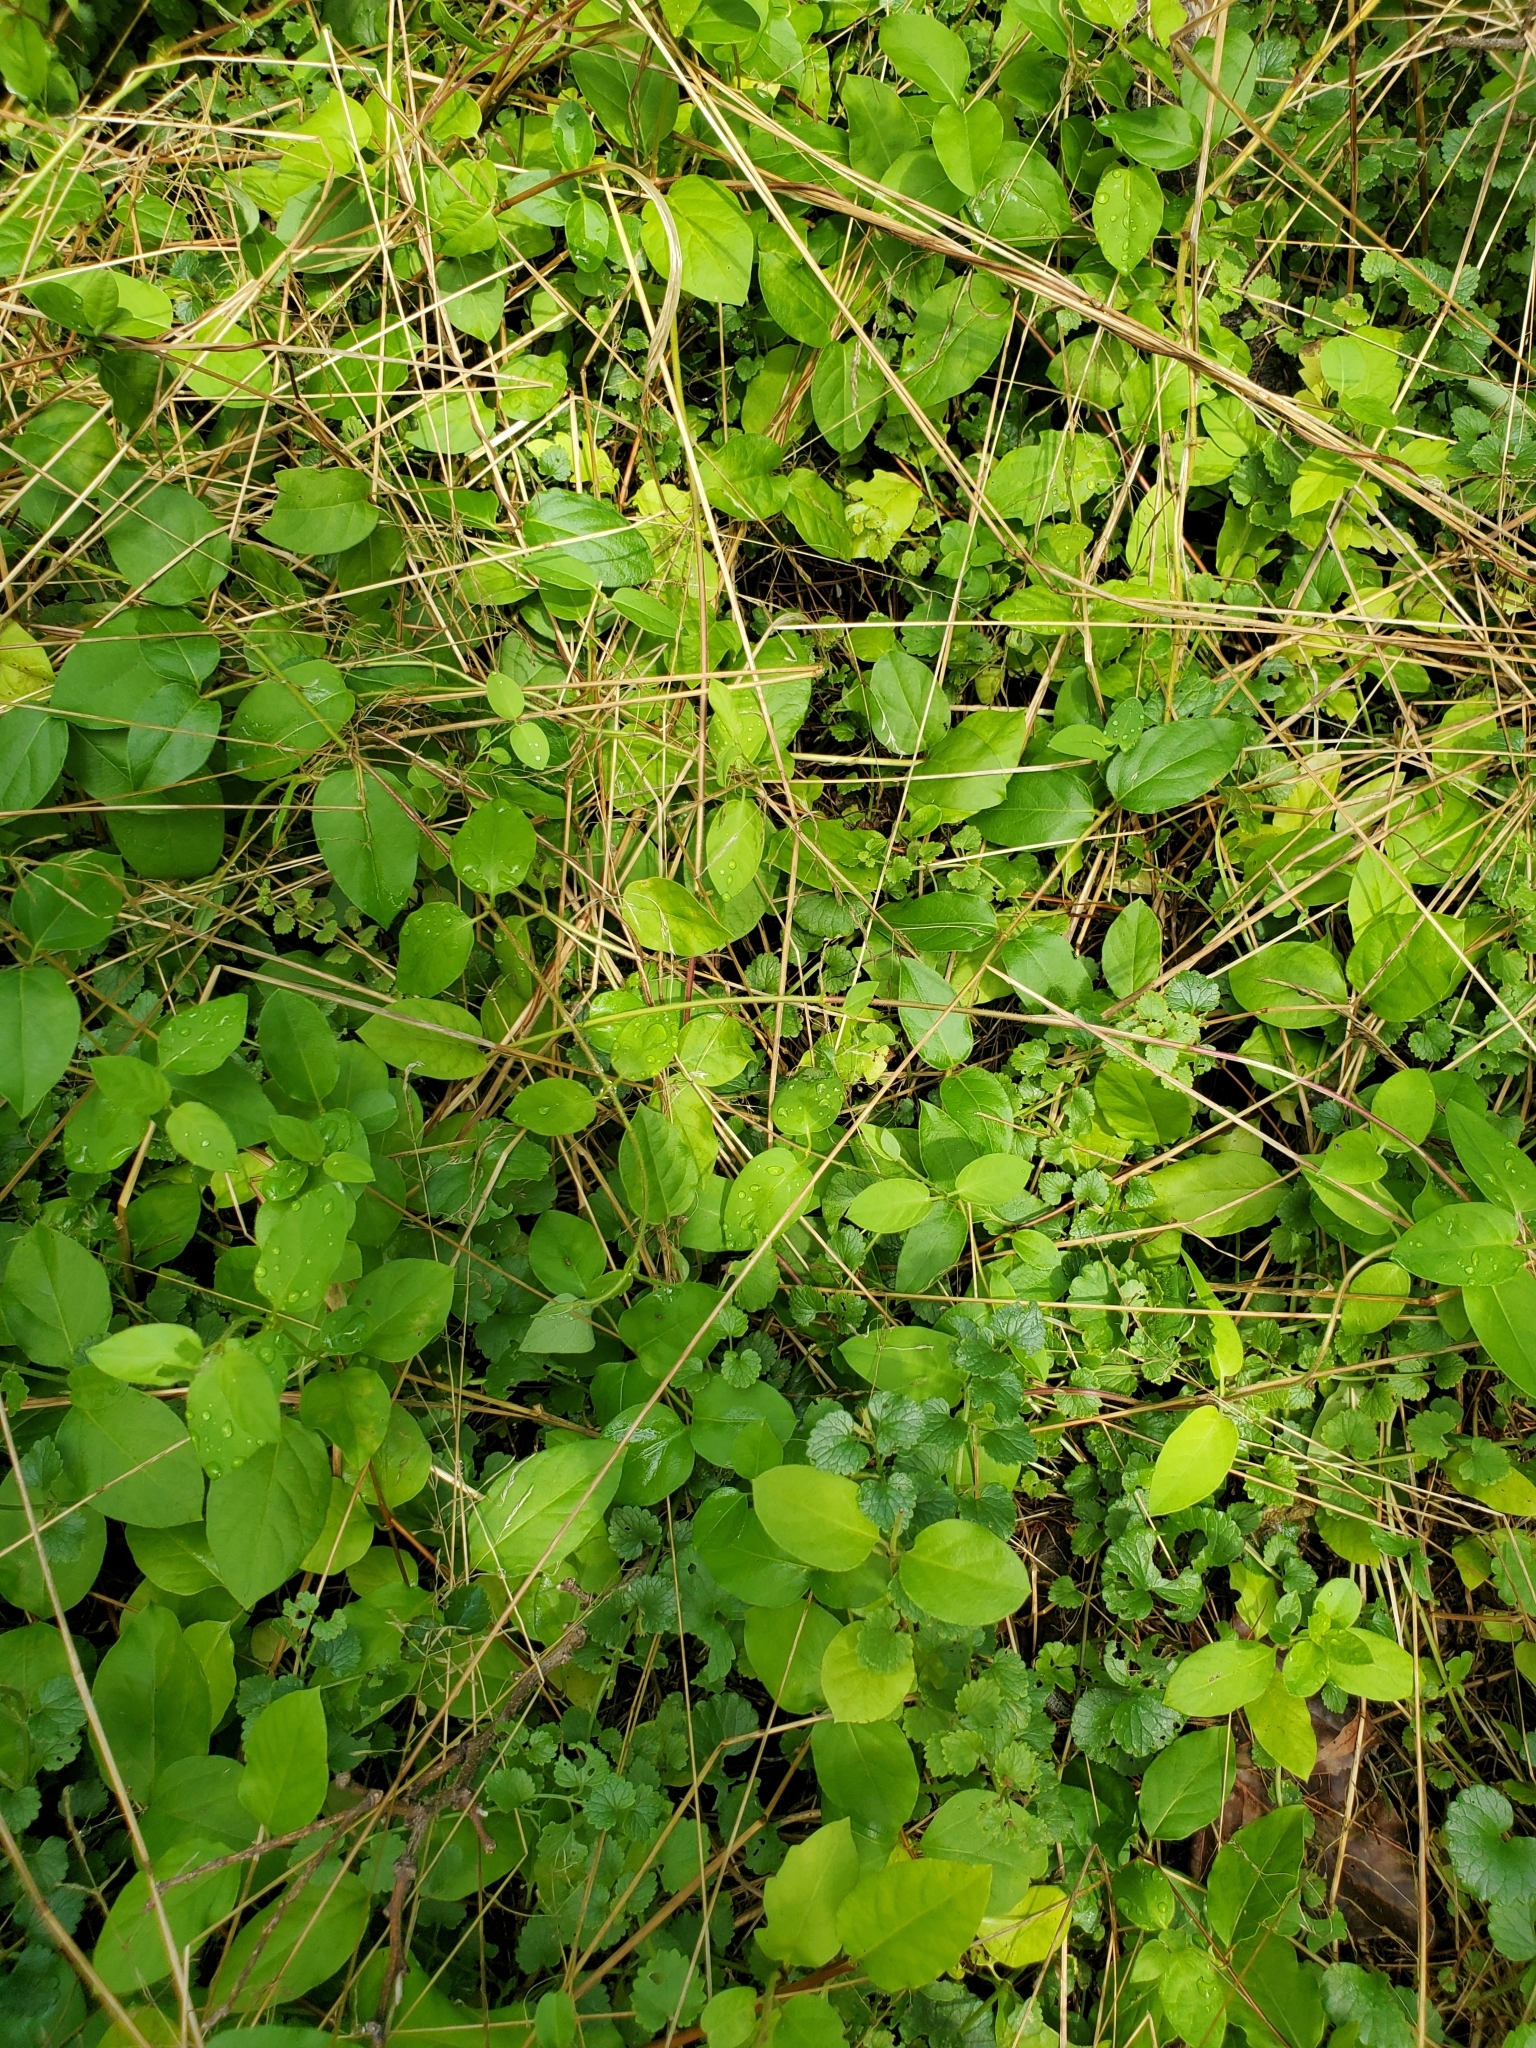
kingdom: Plantae
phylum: Tracheophyta
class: Magnoliopsida
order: Dipsacales
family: Caprifoliaceae
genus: Lonicera
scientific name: Lonicera japonica
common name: Japanese honeysuckle
